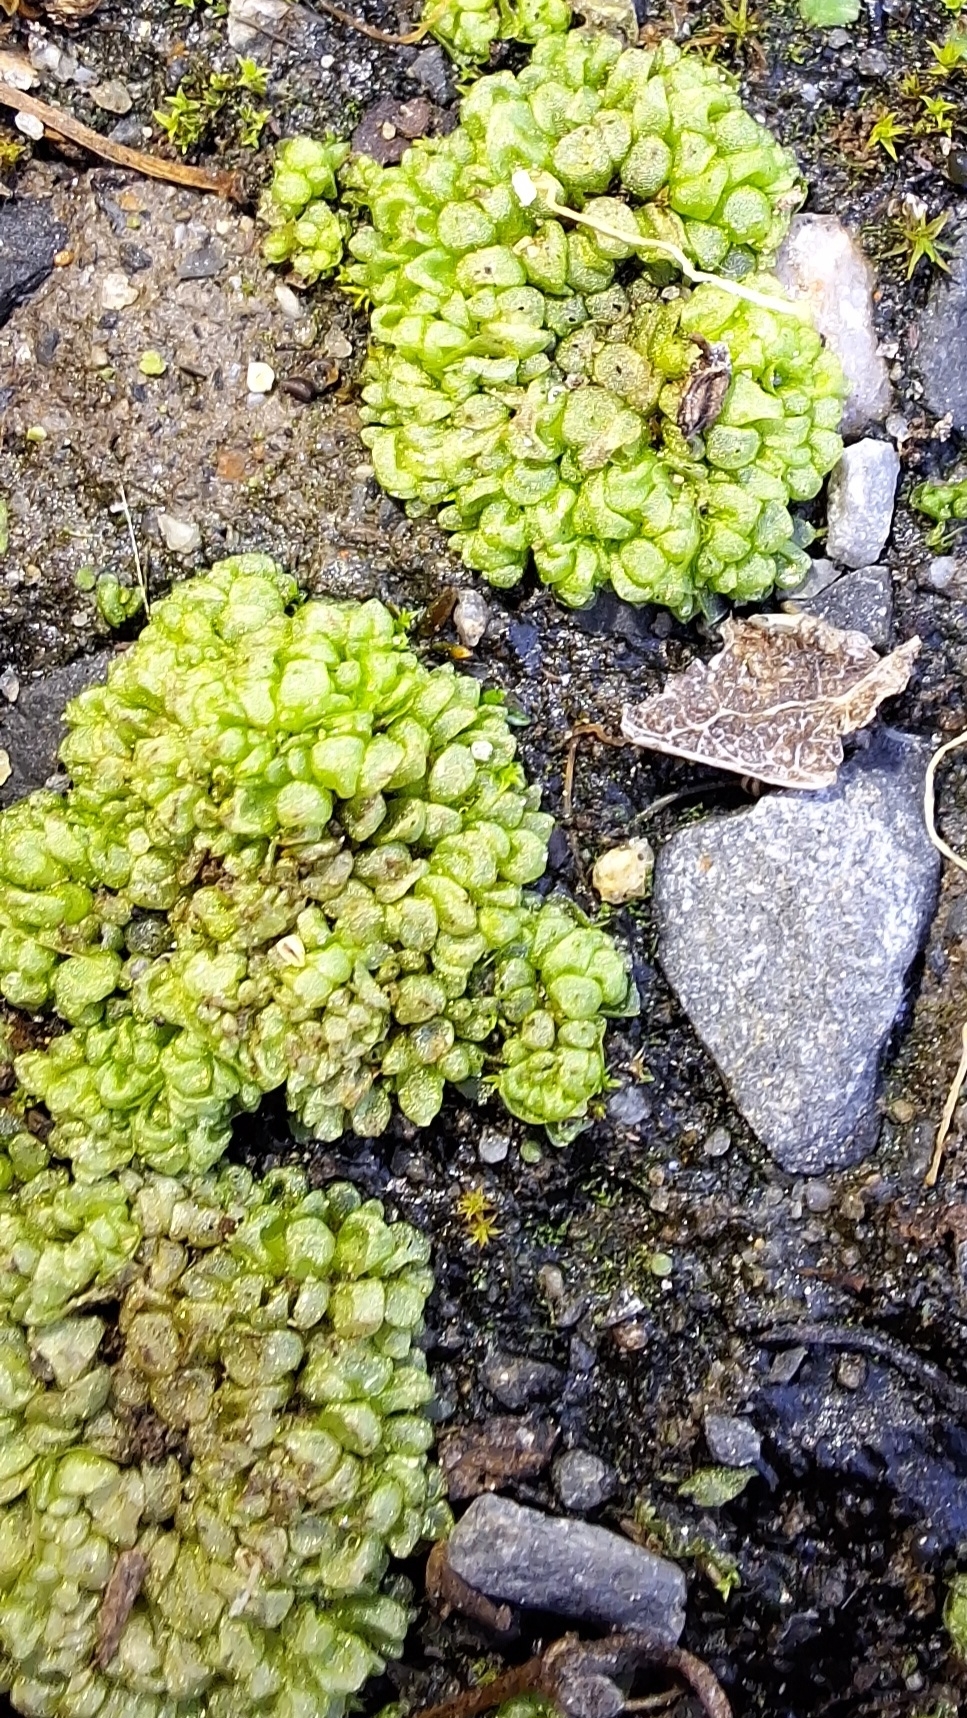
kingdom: Plantae
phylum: Marchantiophyta
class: Marchantiopsida
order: Sphaerocarpales
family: Sphaerocarpaceae
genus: Sphaerocarpos
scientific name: Sphaerocarpos texanus
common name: Texas balloonwort
